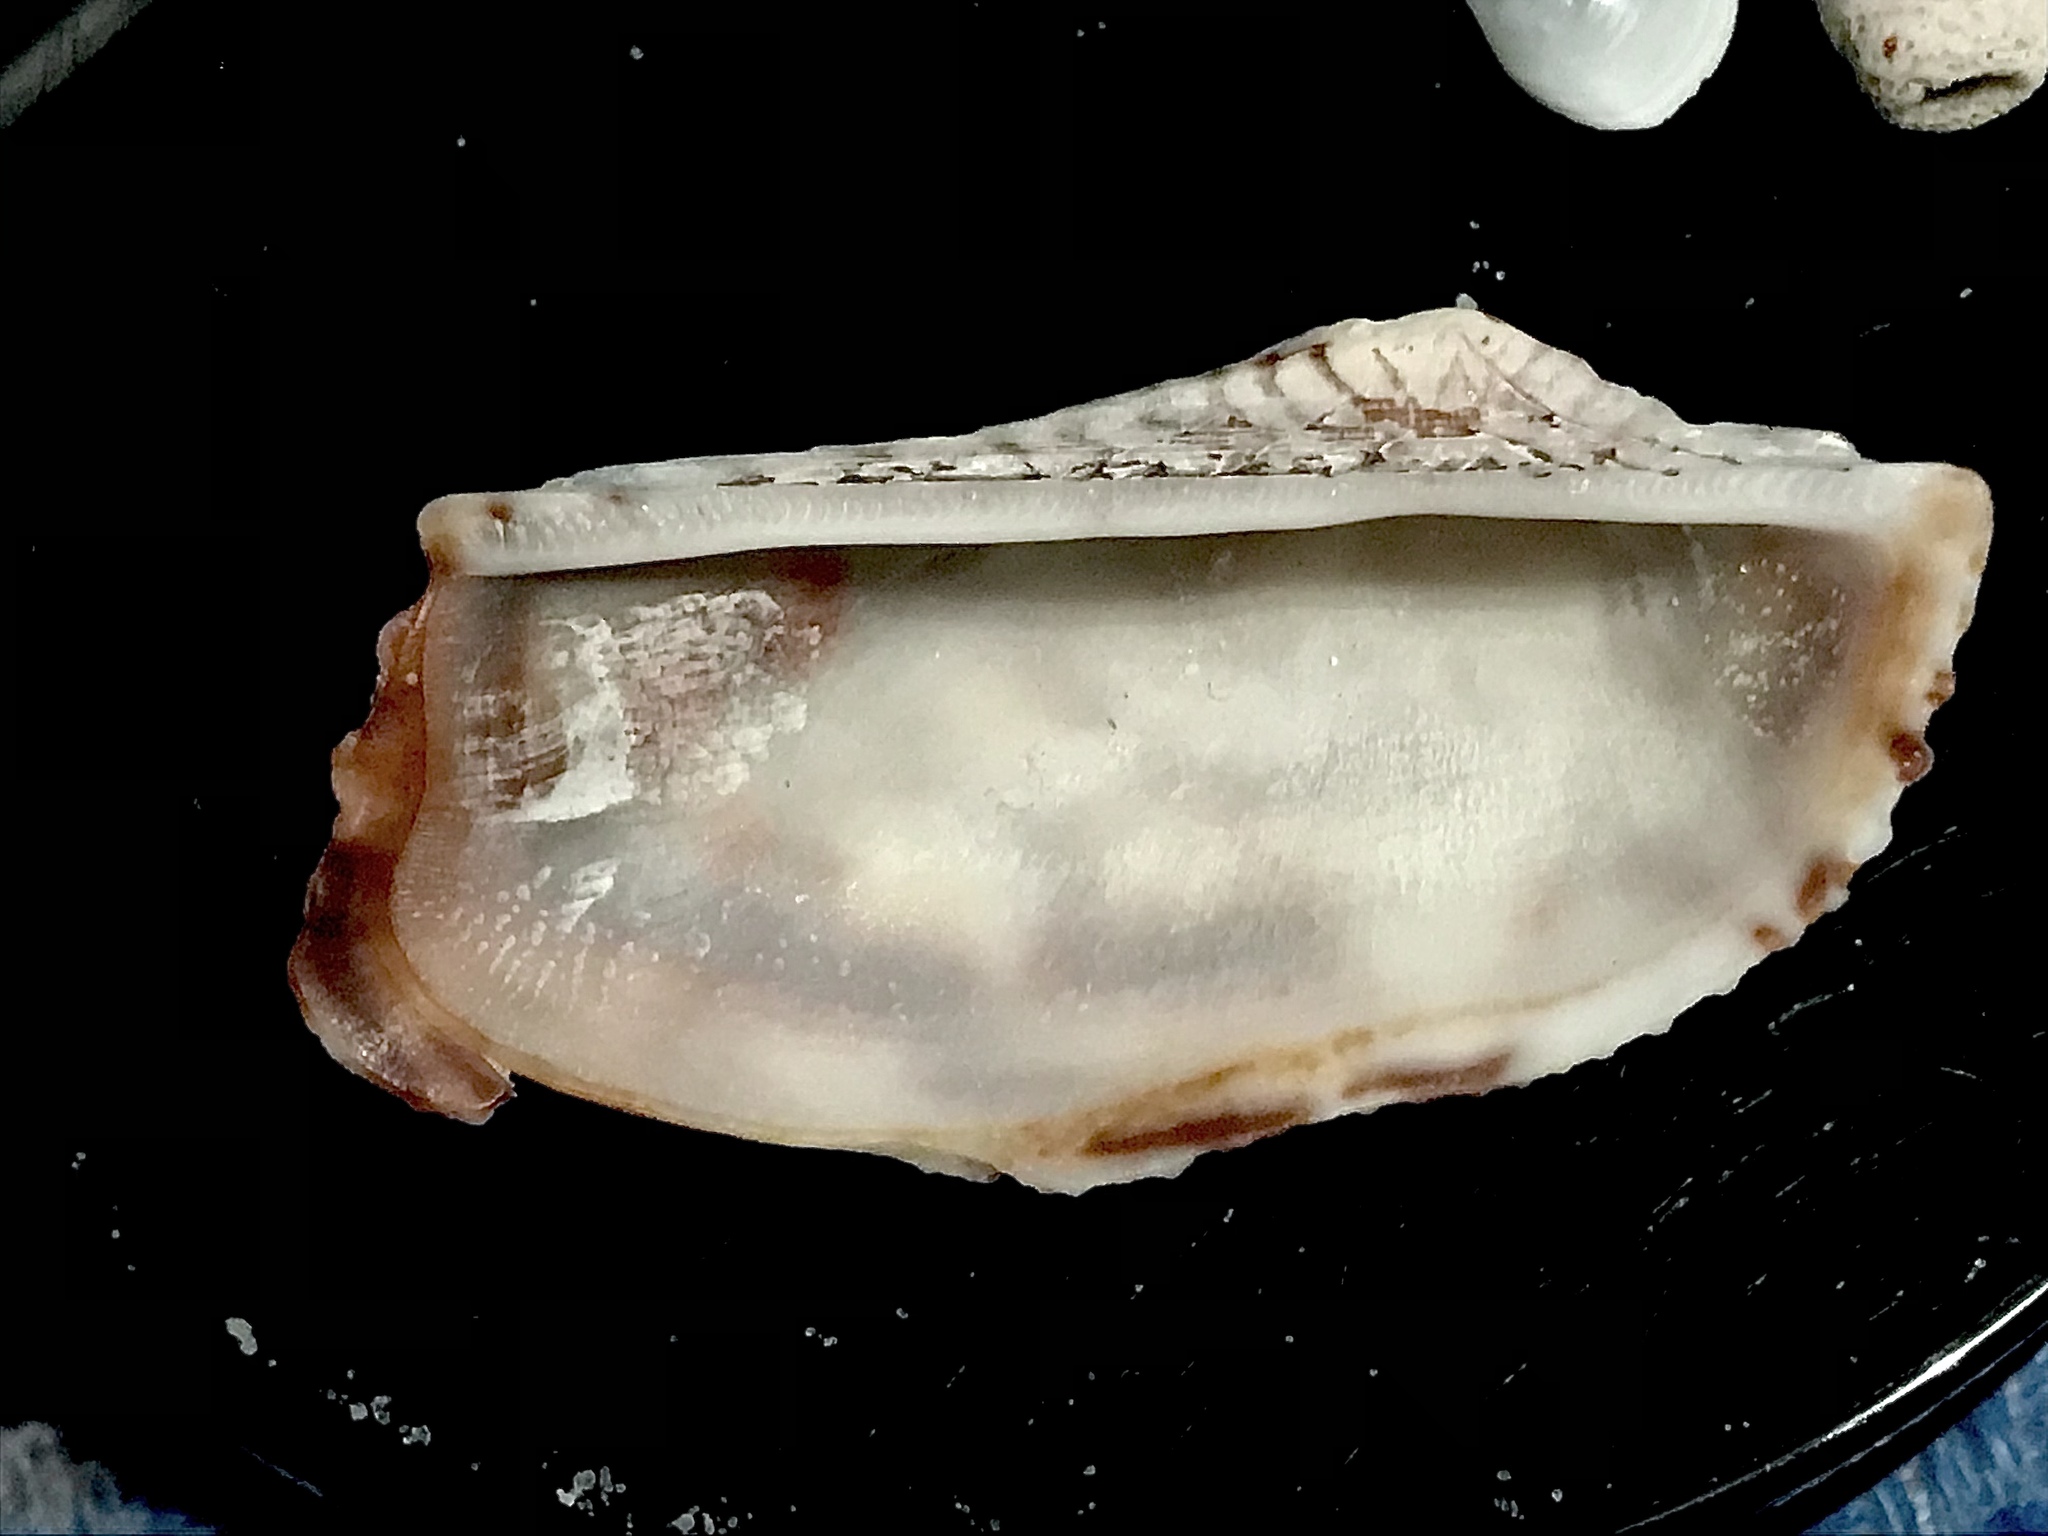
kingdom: Animalia
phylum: Mollusca
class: Bivalvia
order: Arcida
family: Arcidae
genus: Arca
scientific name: Arca zebra
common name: Atlantic turkey wing
